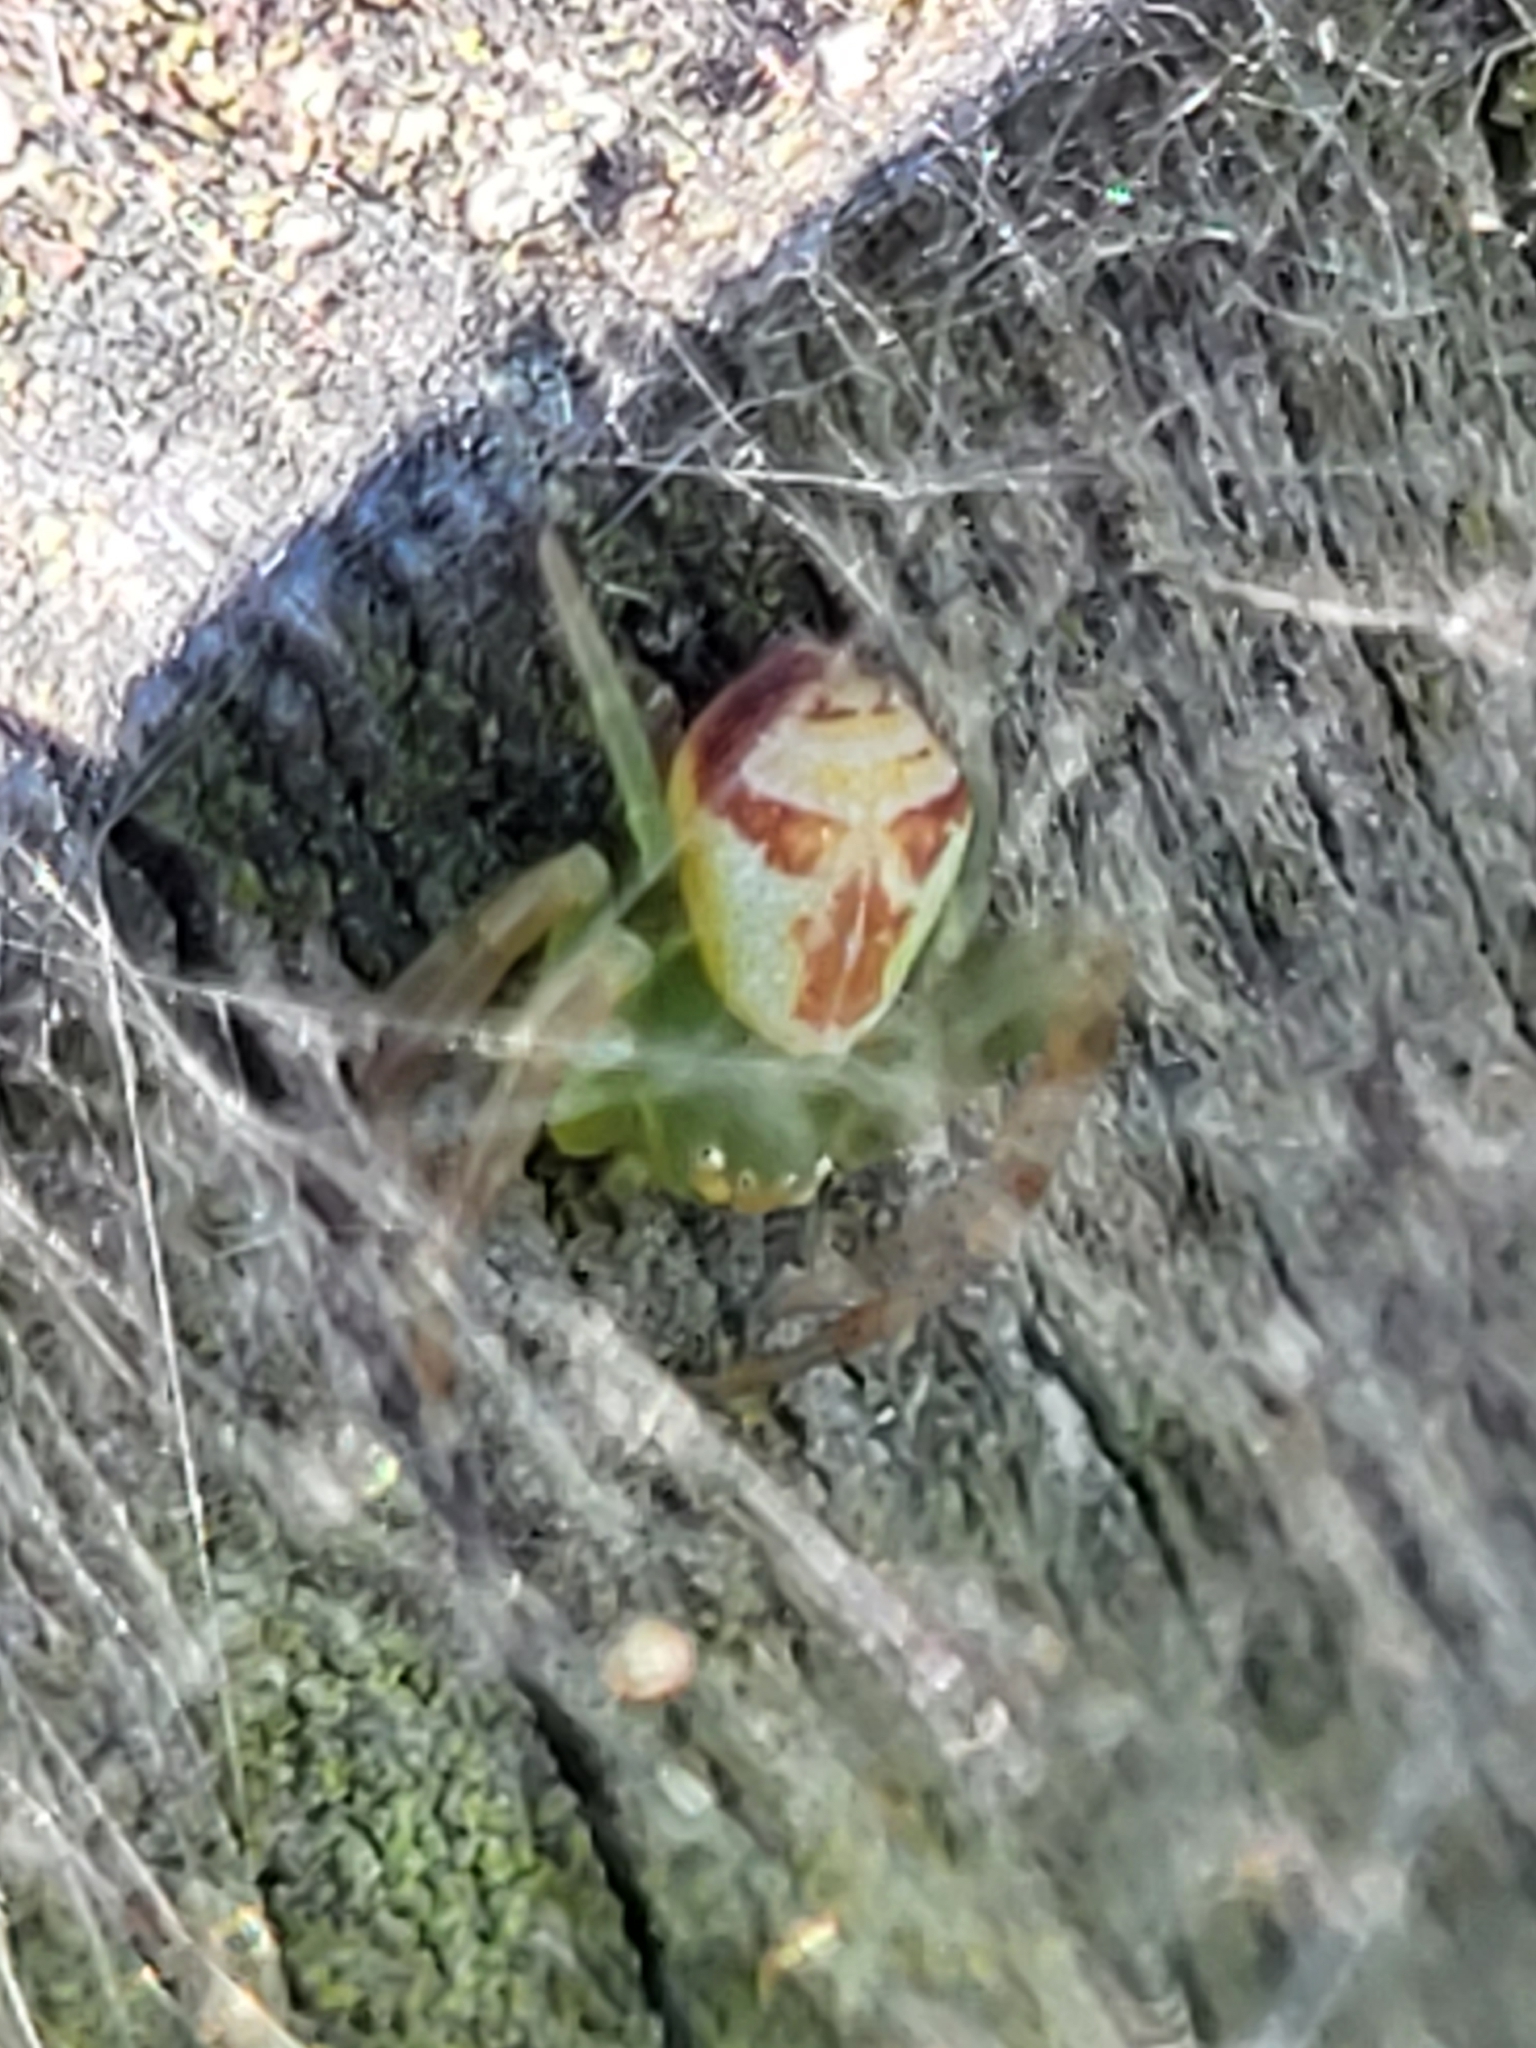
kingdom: Animalia
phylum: Arthropoda
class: Arachnida
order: Araneae
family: Thomisidae
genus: Ebrechtella
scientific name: Ebrechtella tricuspidata
